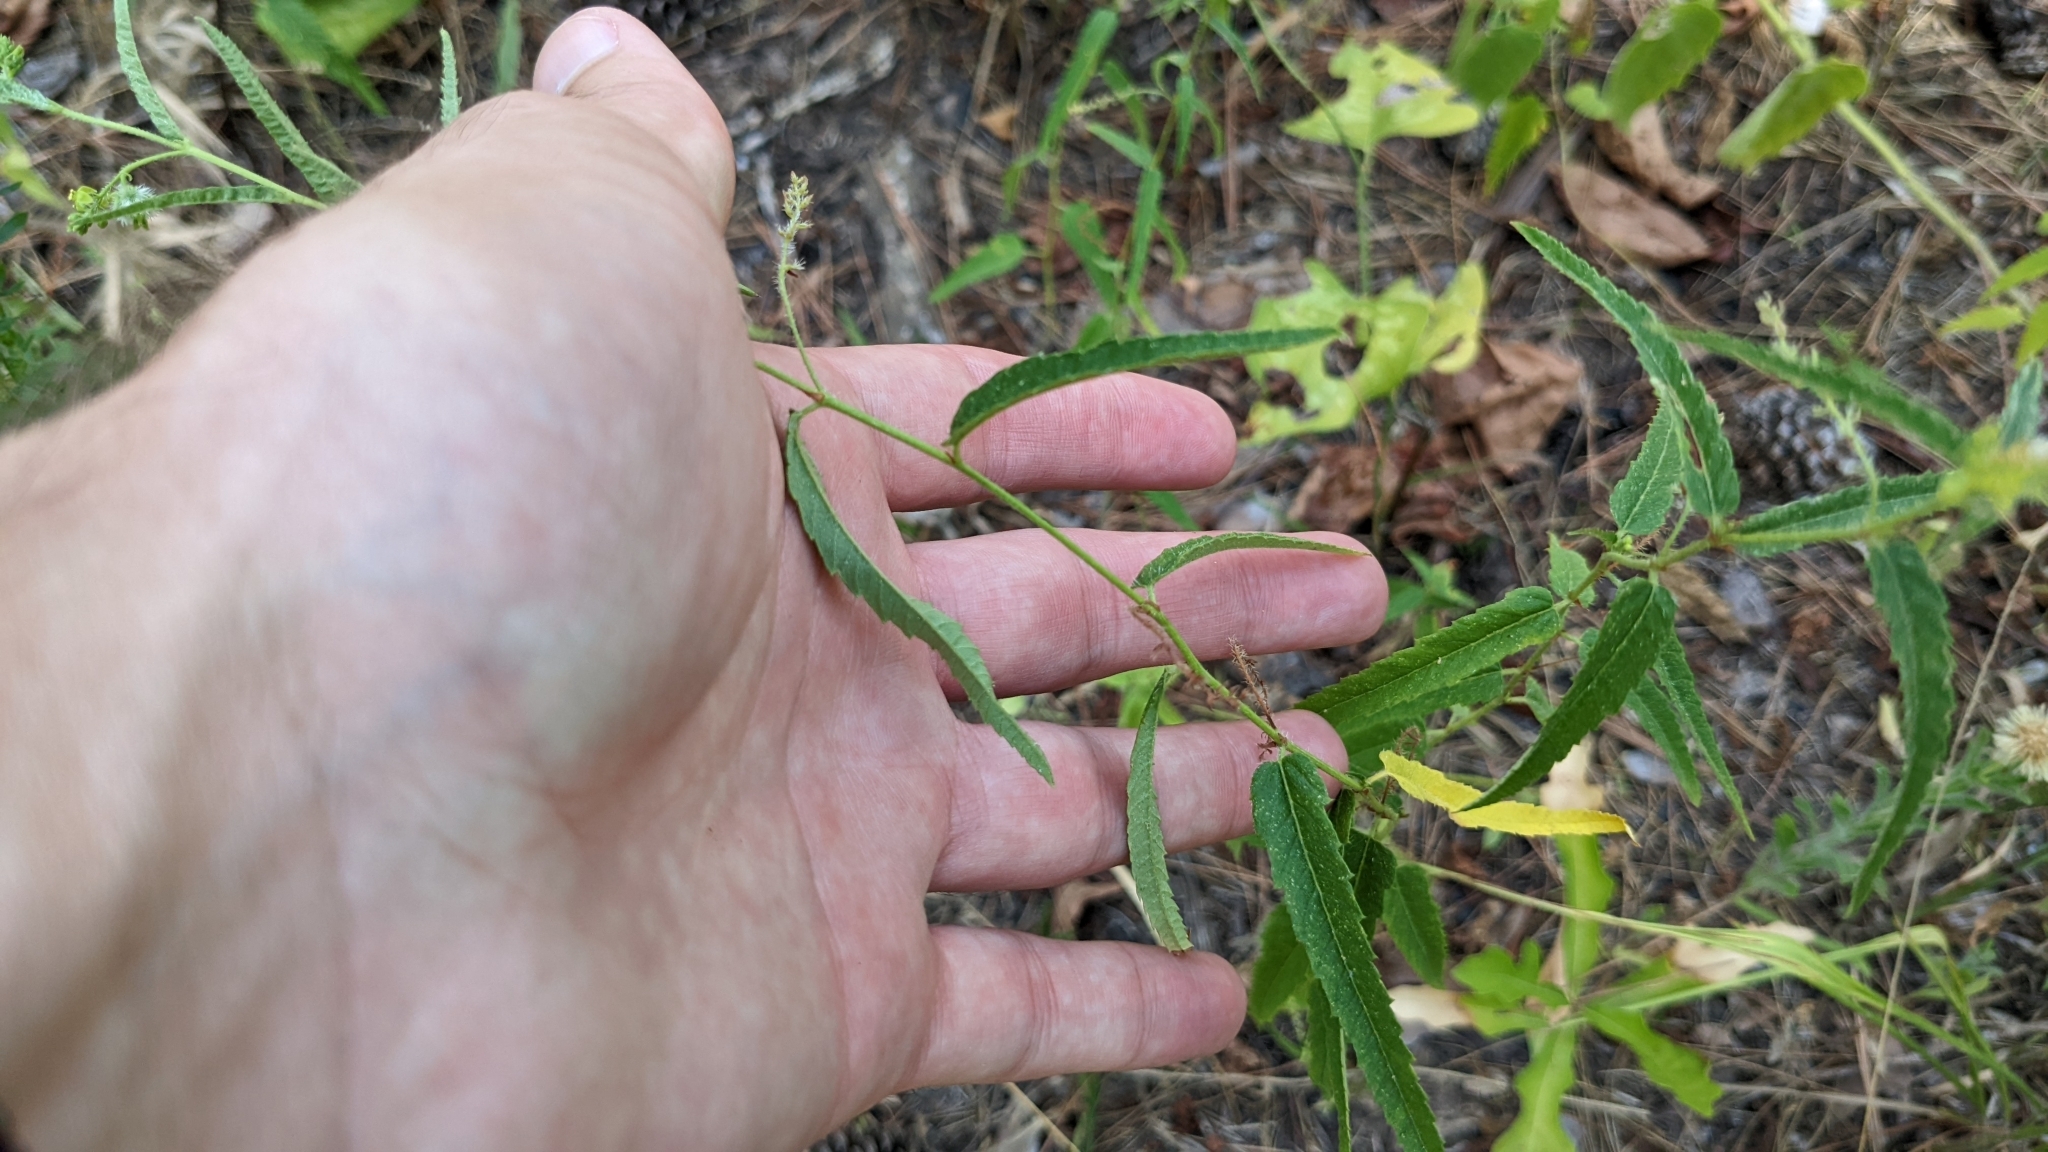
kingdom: Plantae
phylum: Tracheophyta
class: Magnoliopsida
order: Malpighiales
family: Euphorbiaceae
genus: Tragia
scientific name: Tragia urticifolia
